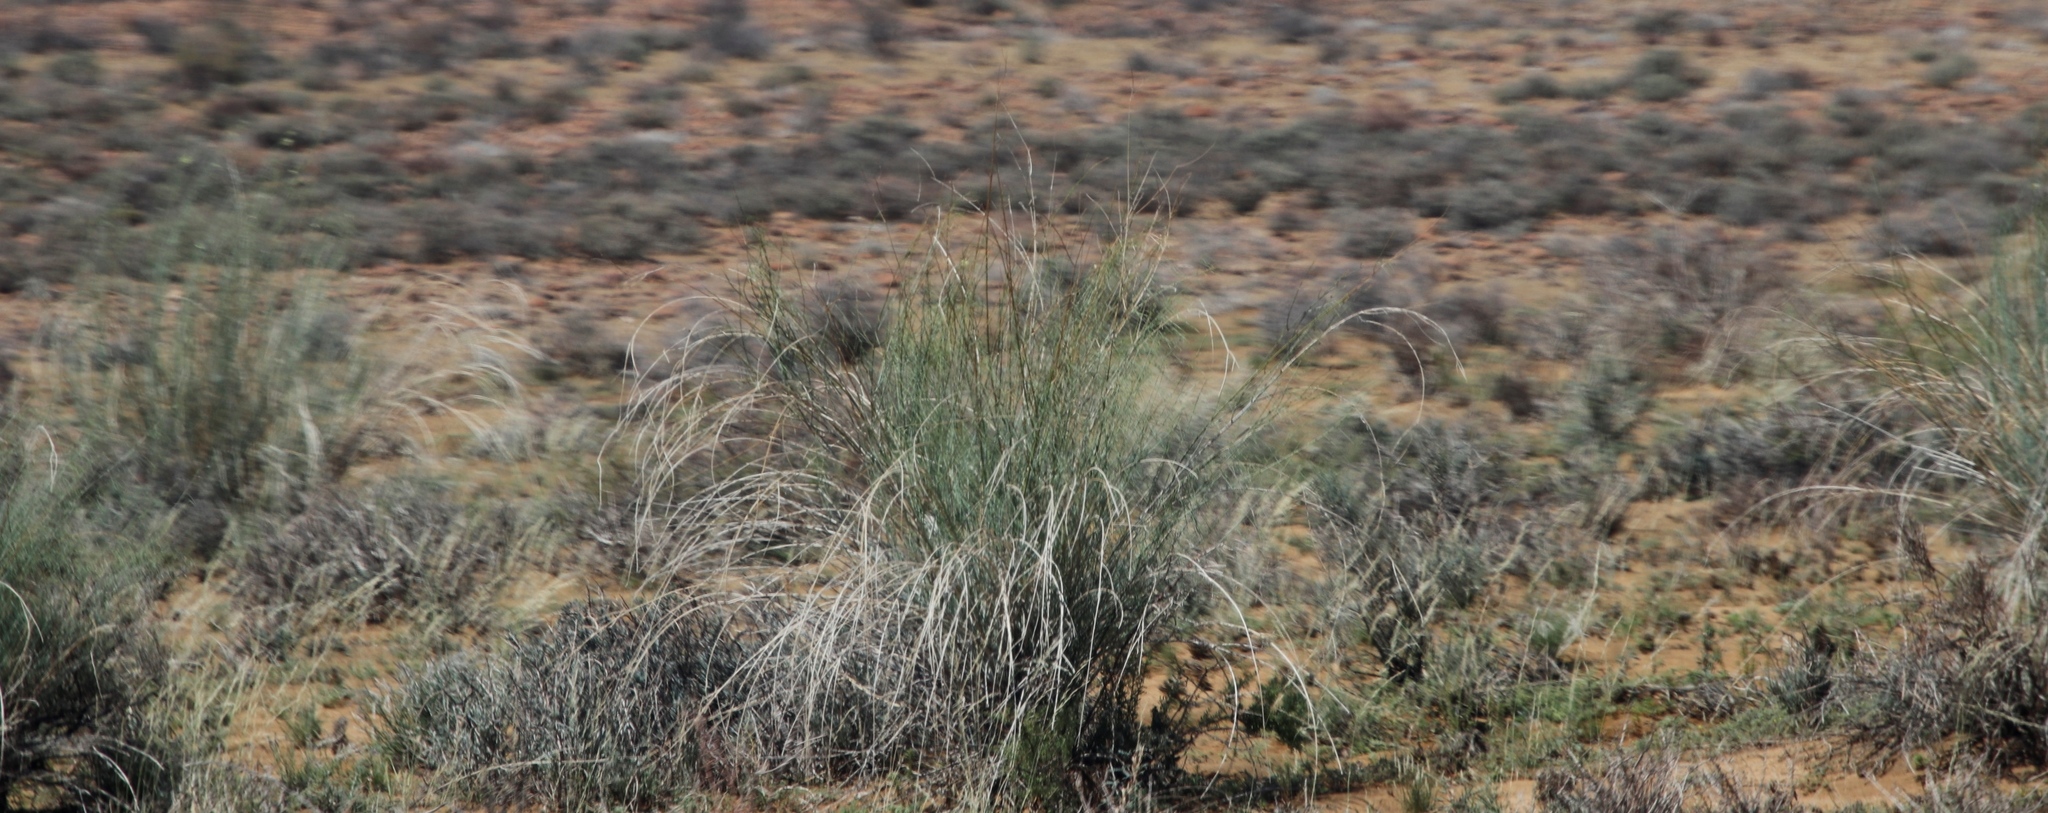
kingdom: Plantae
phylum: Tracheophyta
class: Magnoliopsida
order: Gentianales
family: Apocynaceae
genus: Gomphocarpus
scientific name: Gomphocarpus filiformis
